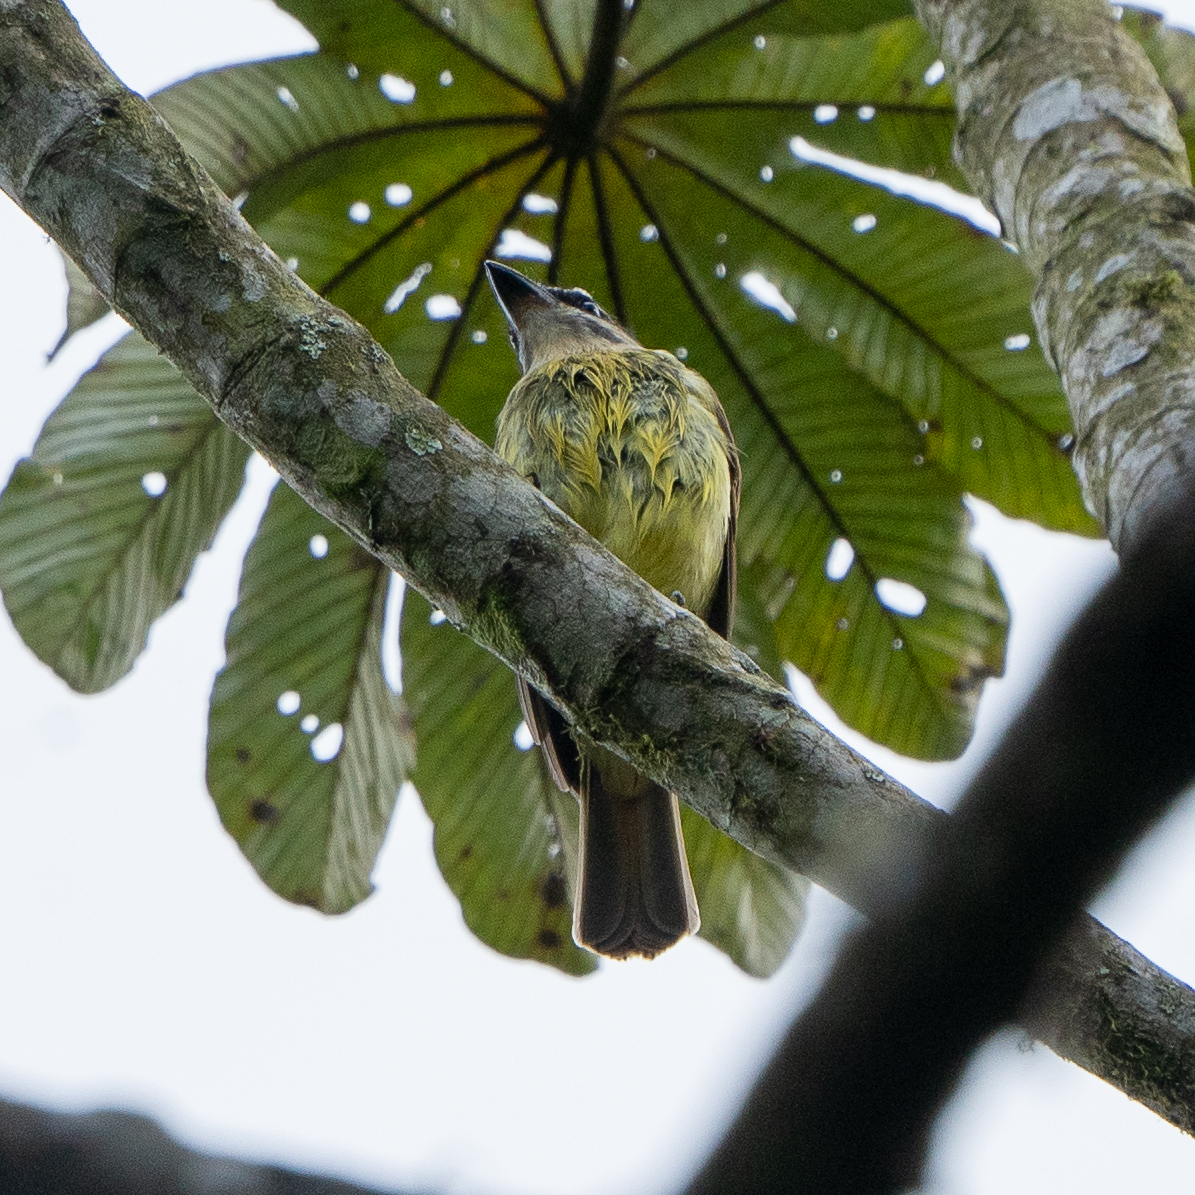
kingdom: Animalia
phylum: Chordata
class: Aves
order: Passeriformes
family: Tyrannidae
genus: Myiodynastes
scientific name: Myiodynastes hemichrysus
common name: Golden-bellied flycatcher
